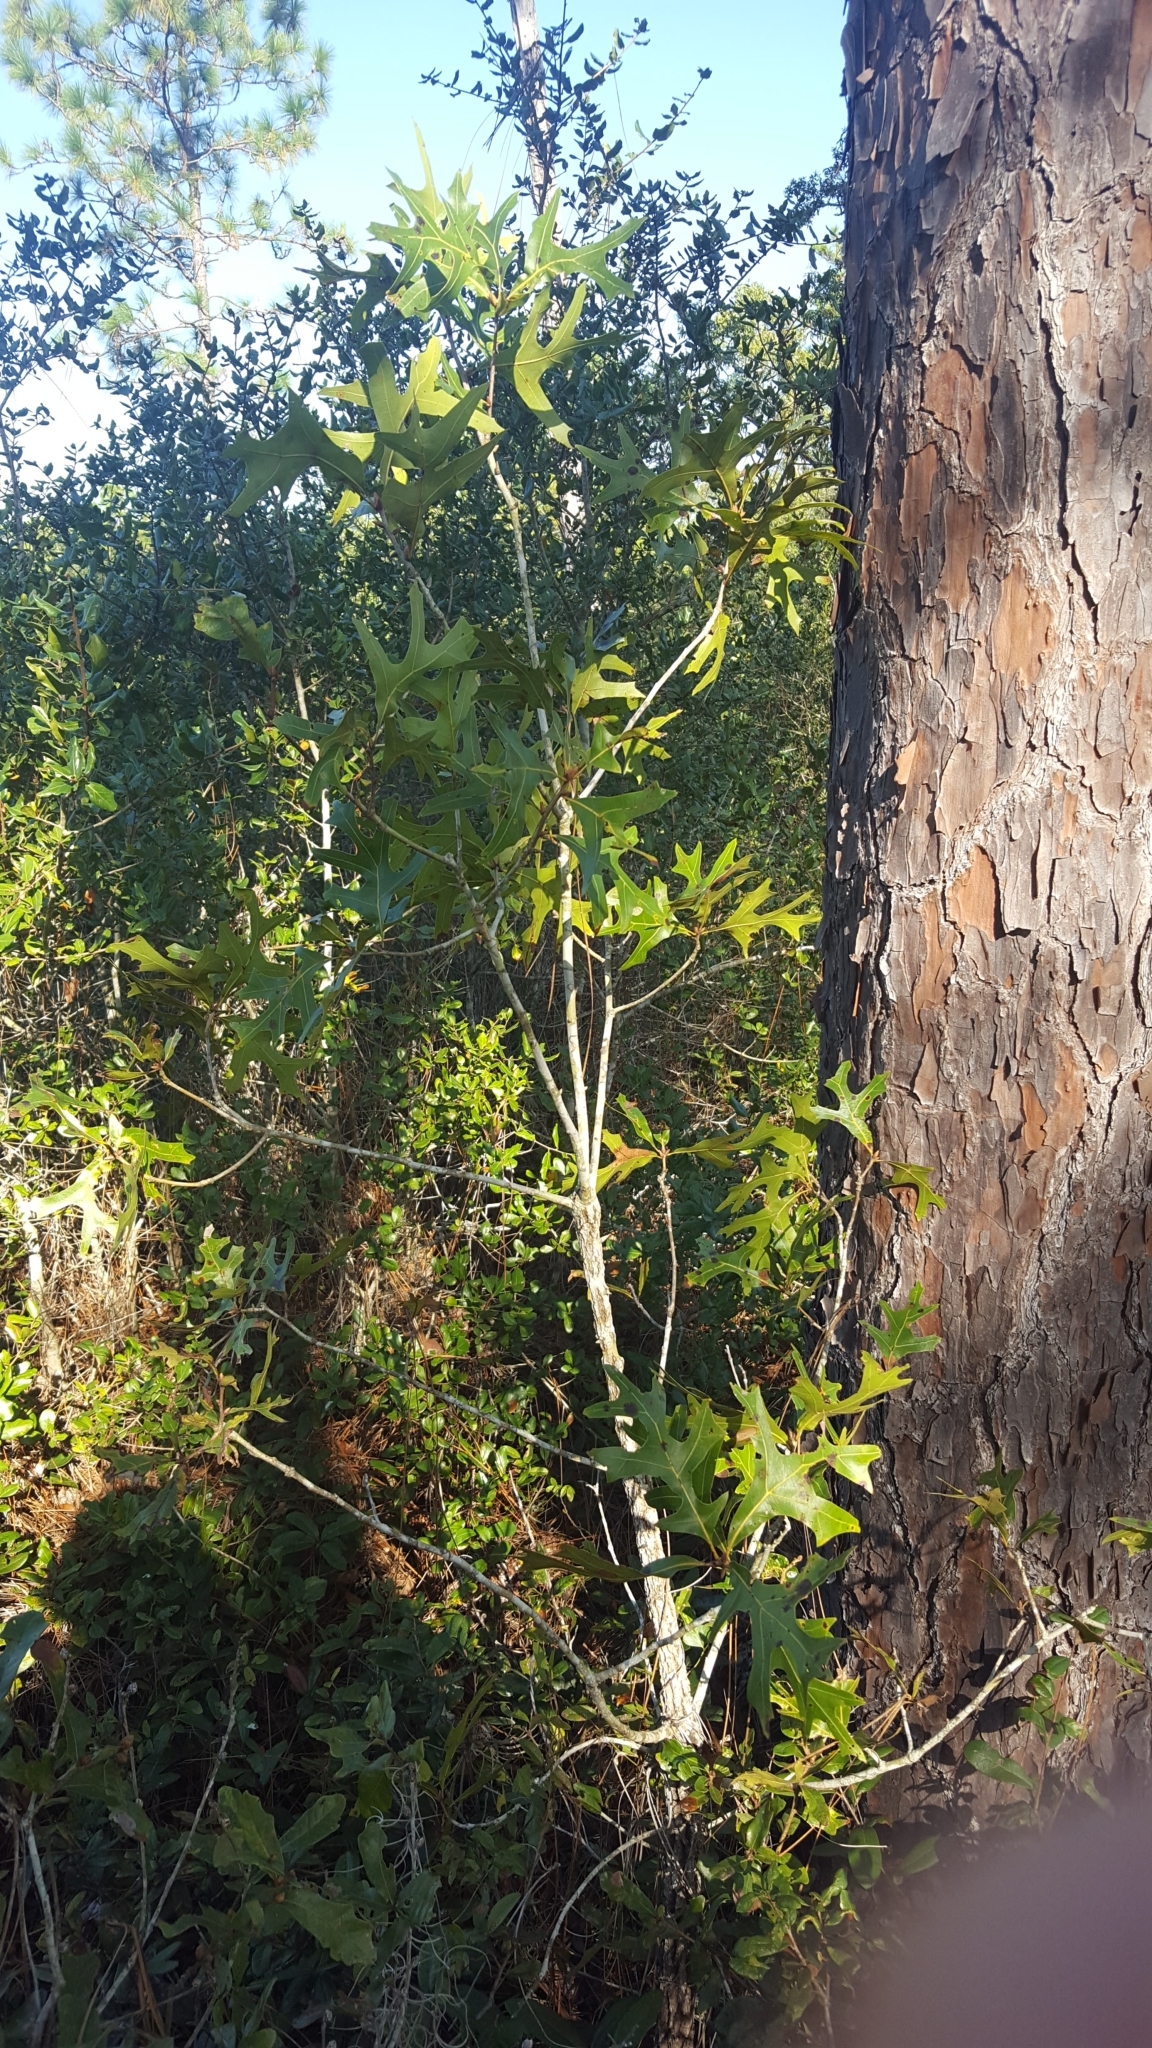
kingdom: Plantae
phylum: Tracheophyta
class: Magnoliopsida
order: Fagales
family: Fagaceae
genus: Quercus
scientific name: Quercus laevis
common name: Turkey oak
